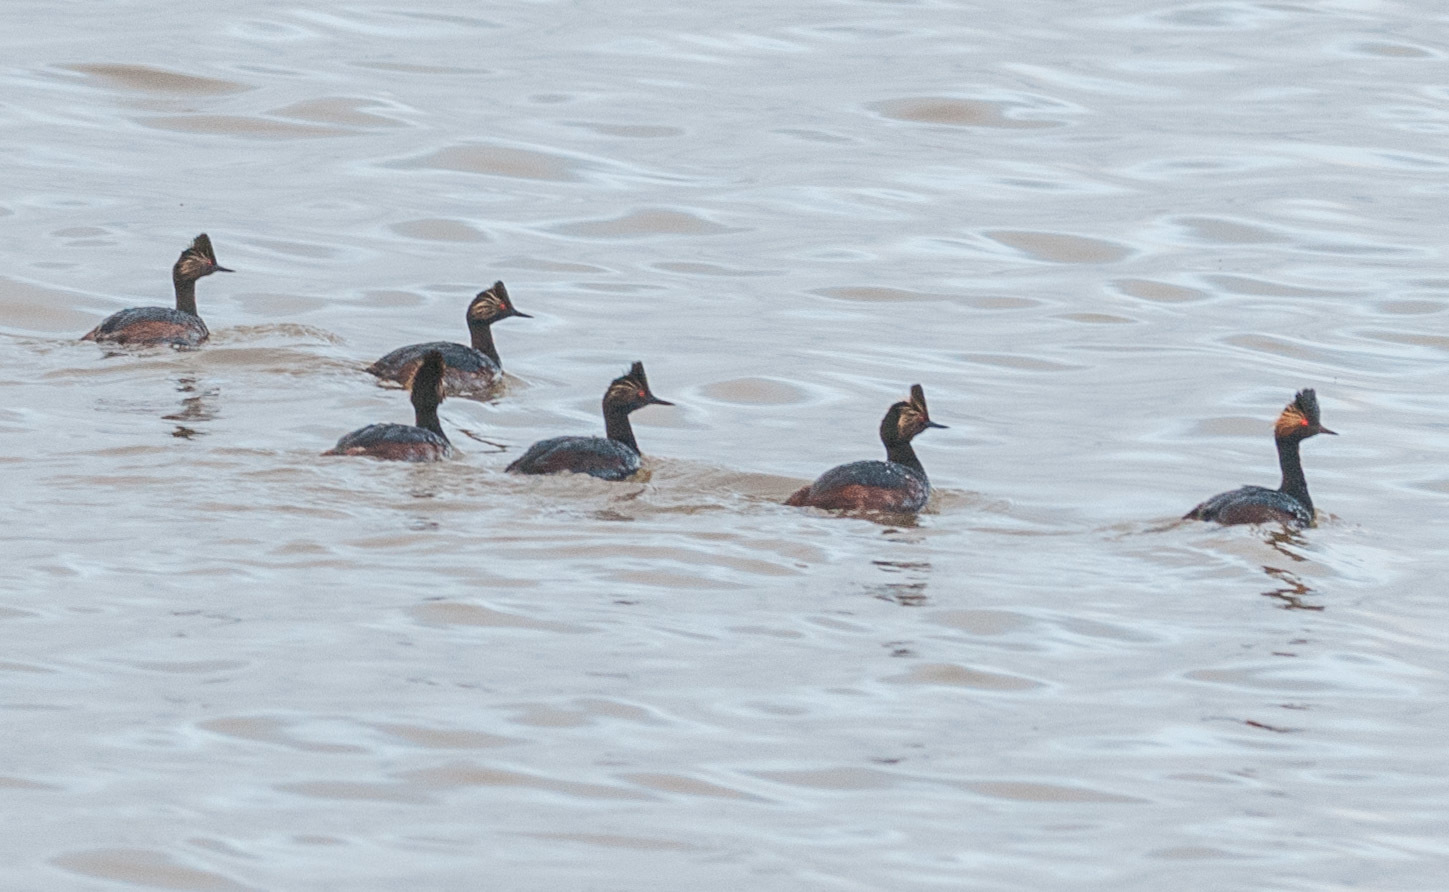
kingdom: Animalia
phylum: Chordata
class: Aves
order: Podicipediformes
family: Podicipedidae
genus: Podiceps
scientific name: Podiceps nigricollis
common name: Black-necked grebe
